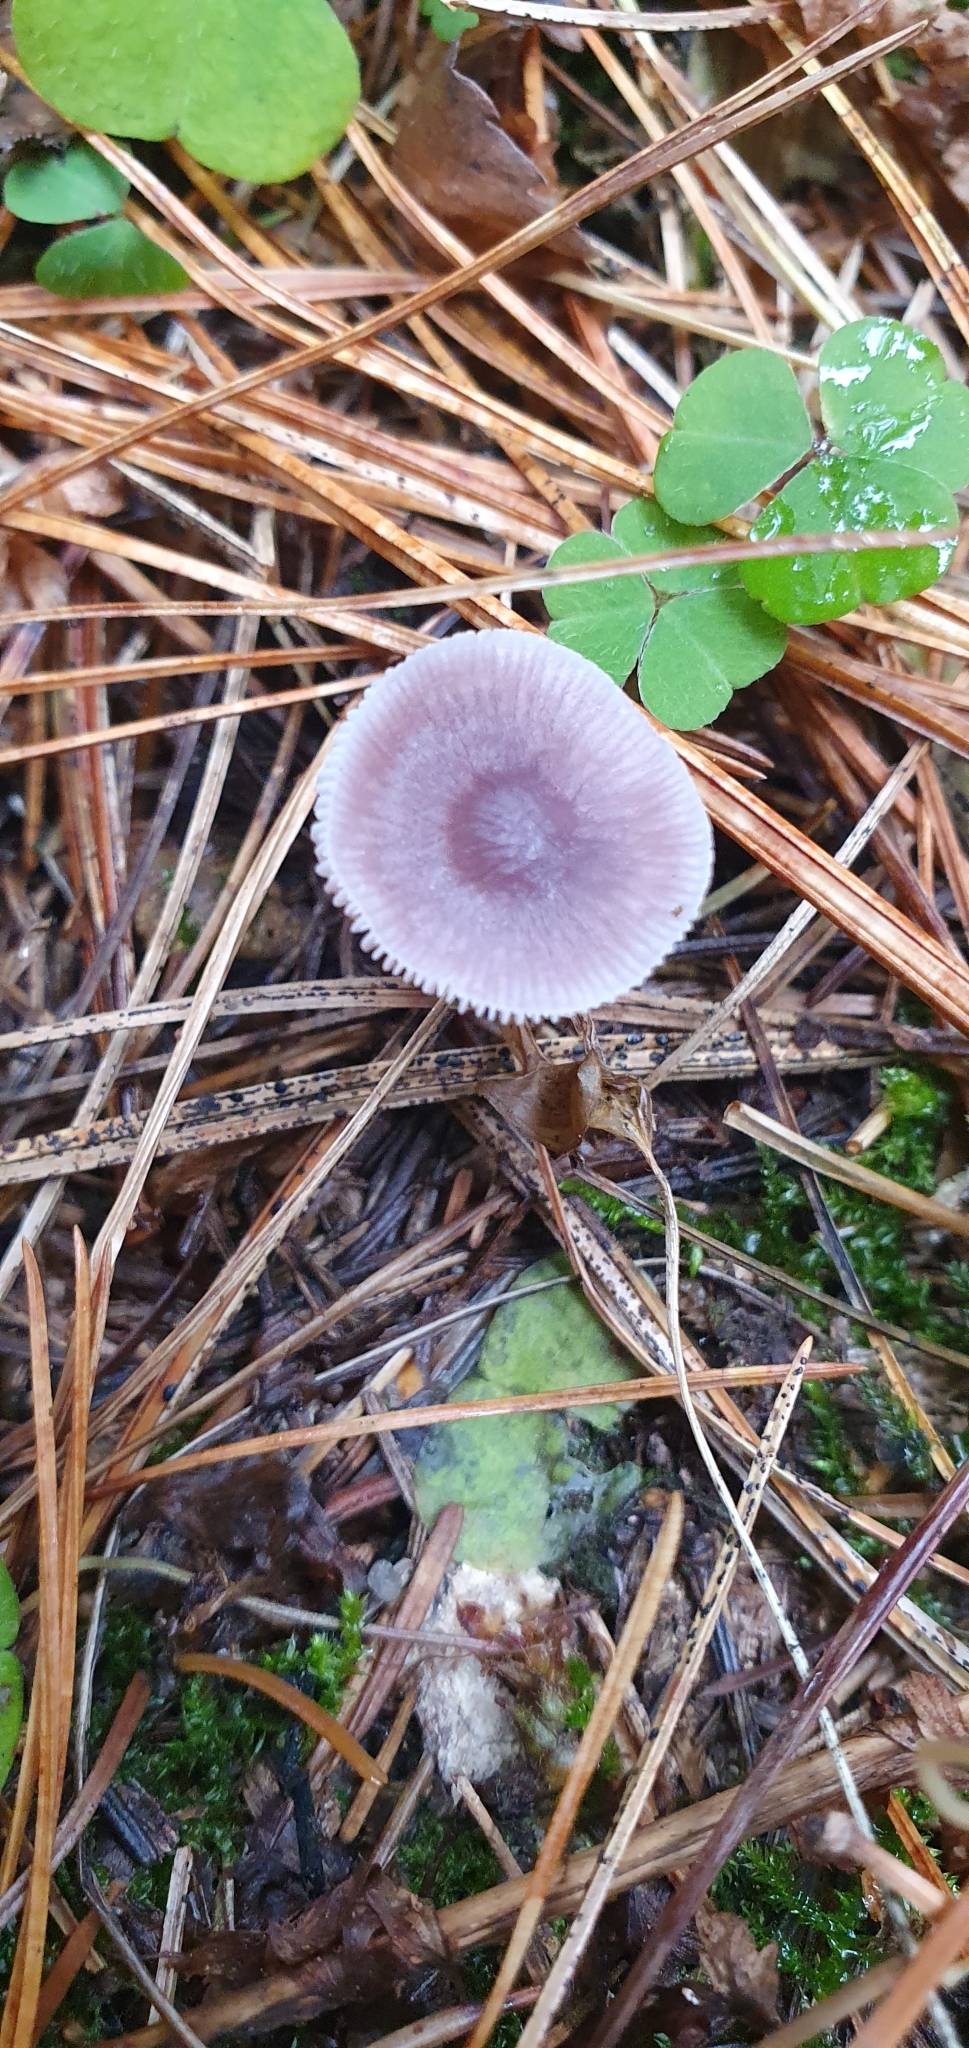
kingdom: Fungi
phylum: Basidiomycota
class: Agaricomycetes
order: Agaricales
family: Mycenaceae
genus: Mycena
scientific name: Mycena pura
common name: Lilac bonnet
